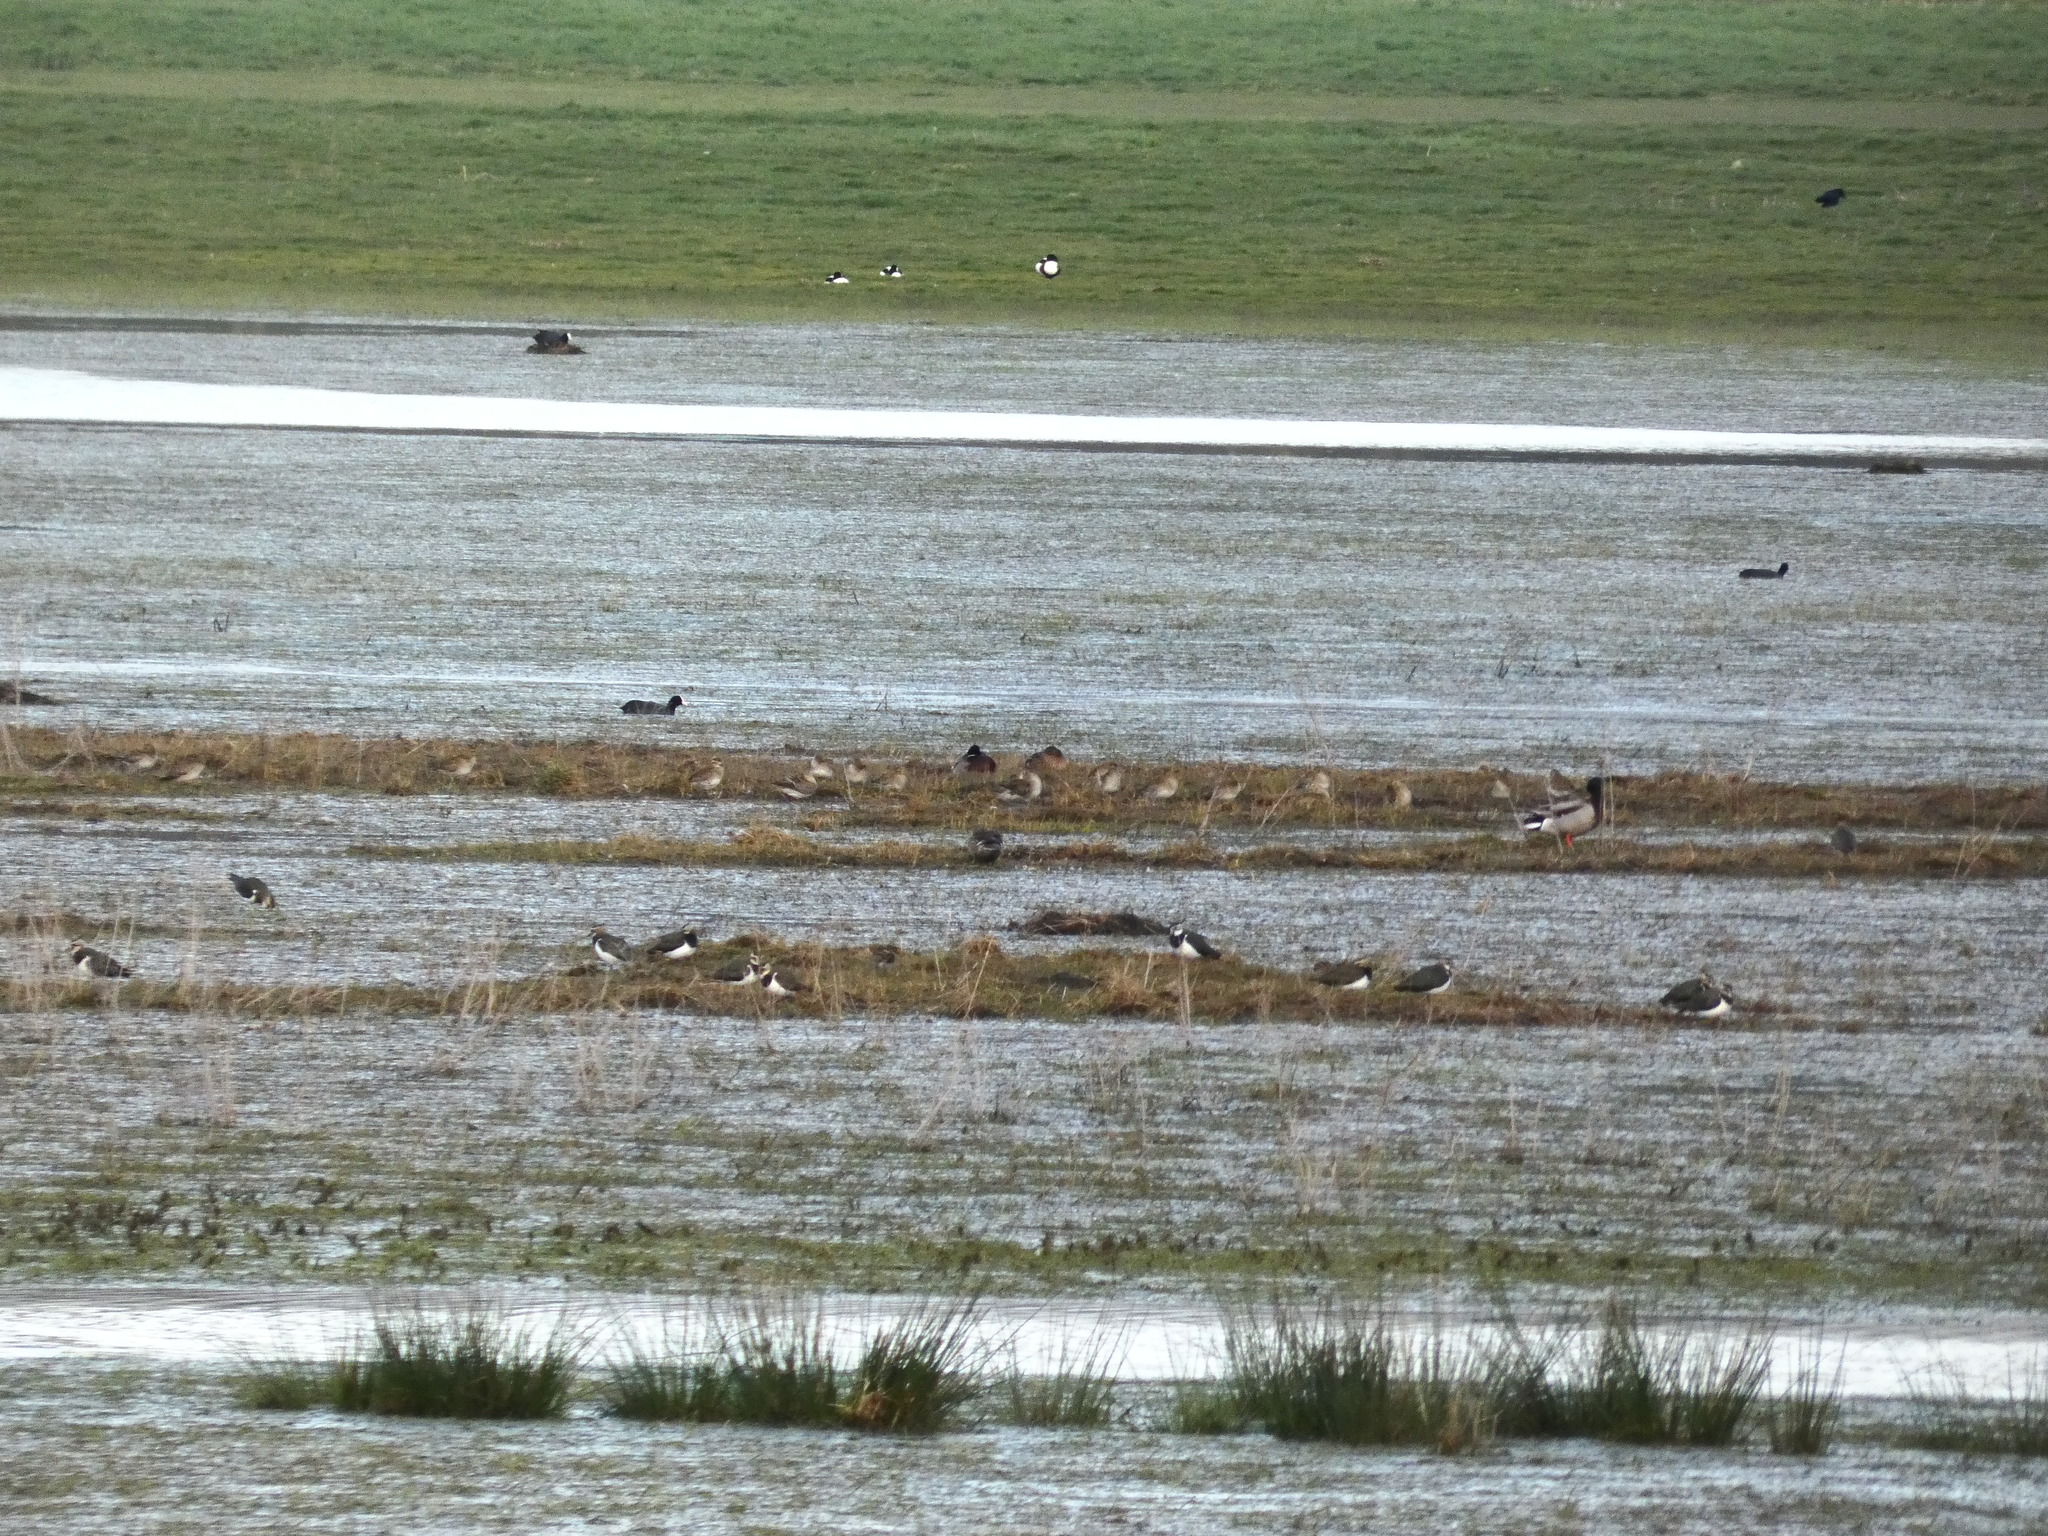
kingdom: Animalia
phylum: Chordata
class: Aves
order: Charadriiformes
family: Charadriidae
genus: Pluvialis
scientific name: Pluvialis apricaria
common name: European golden plover
